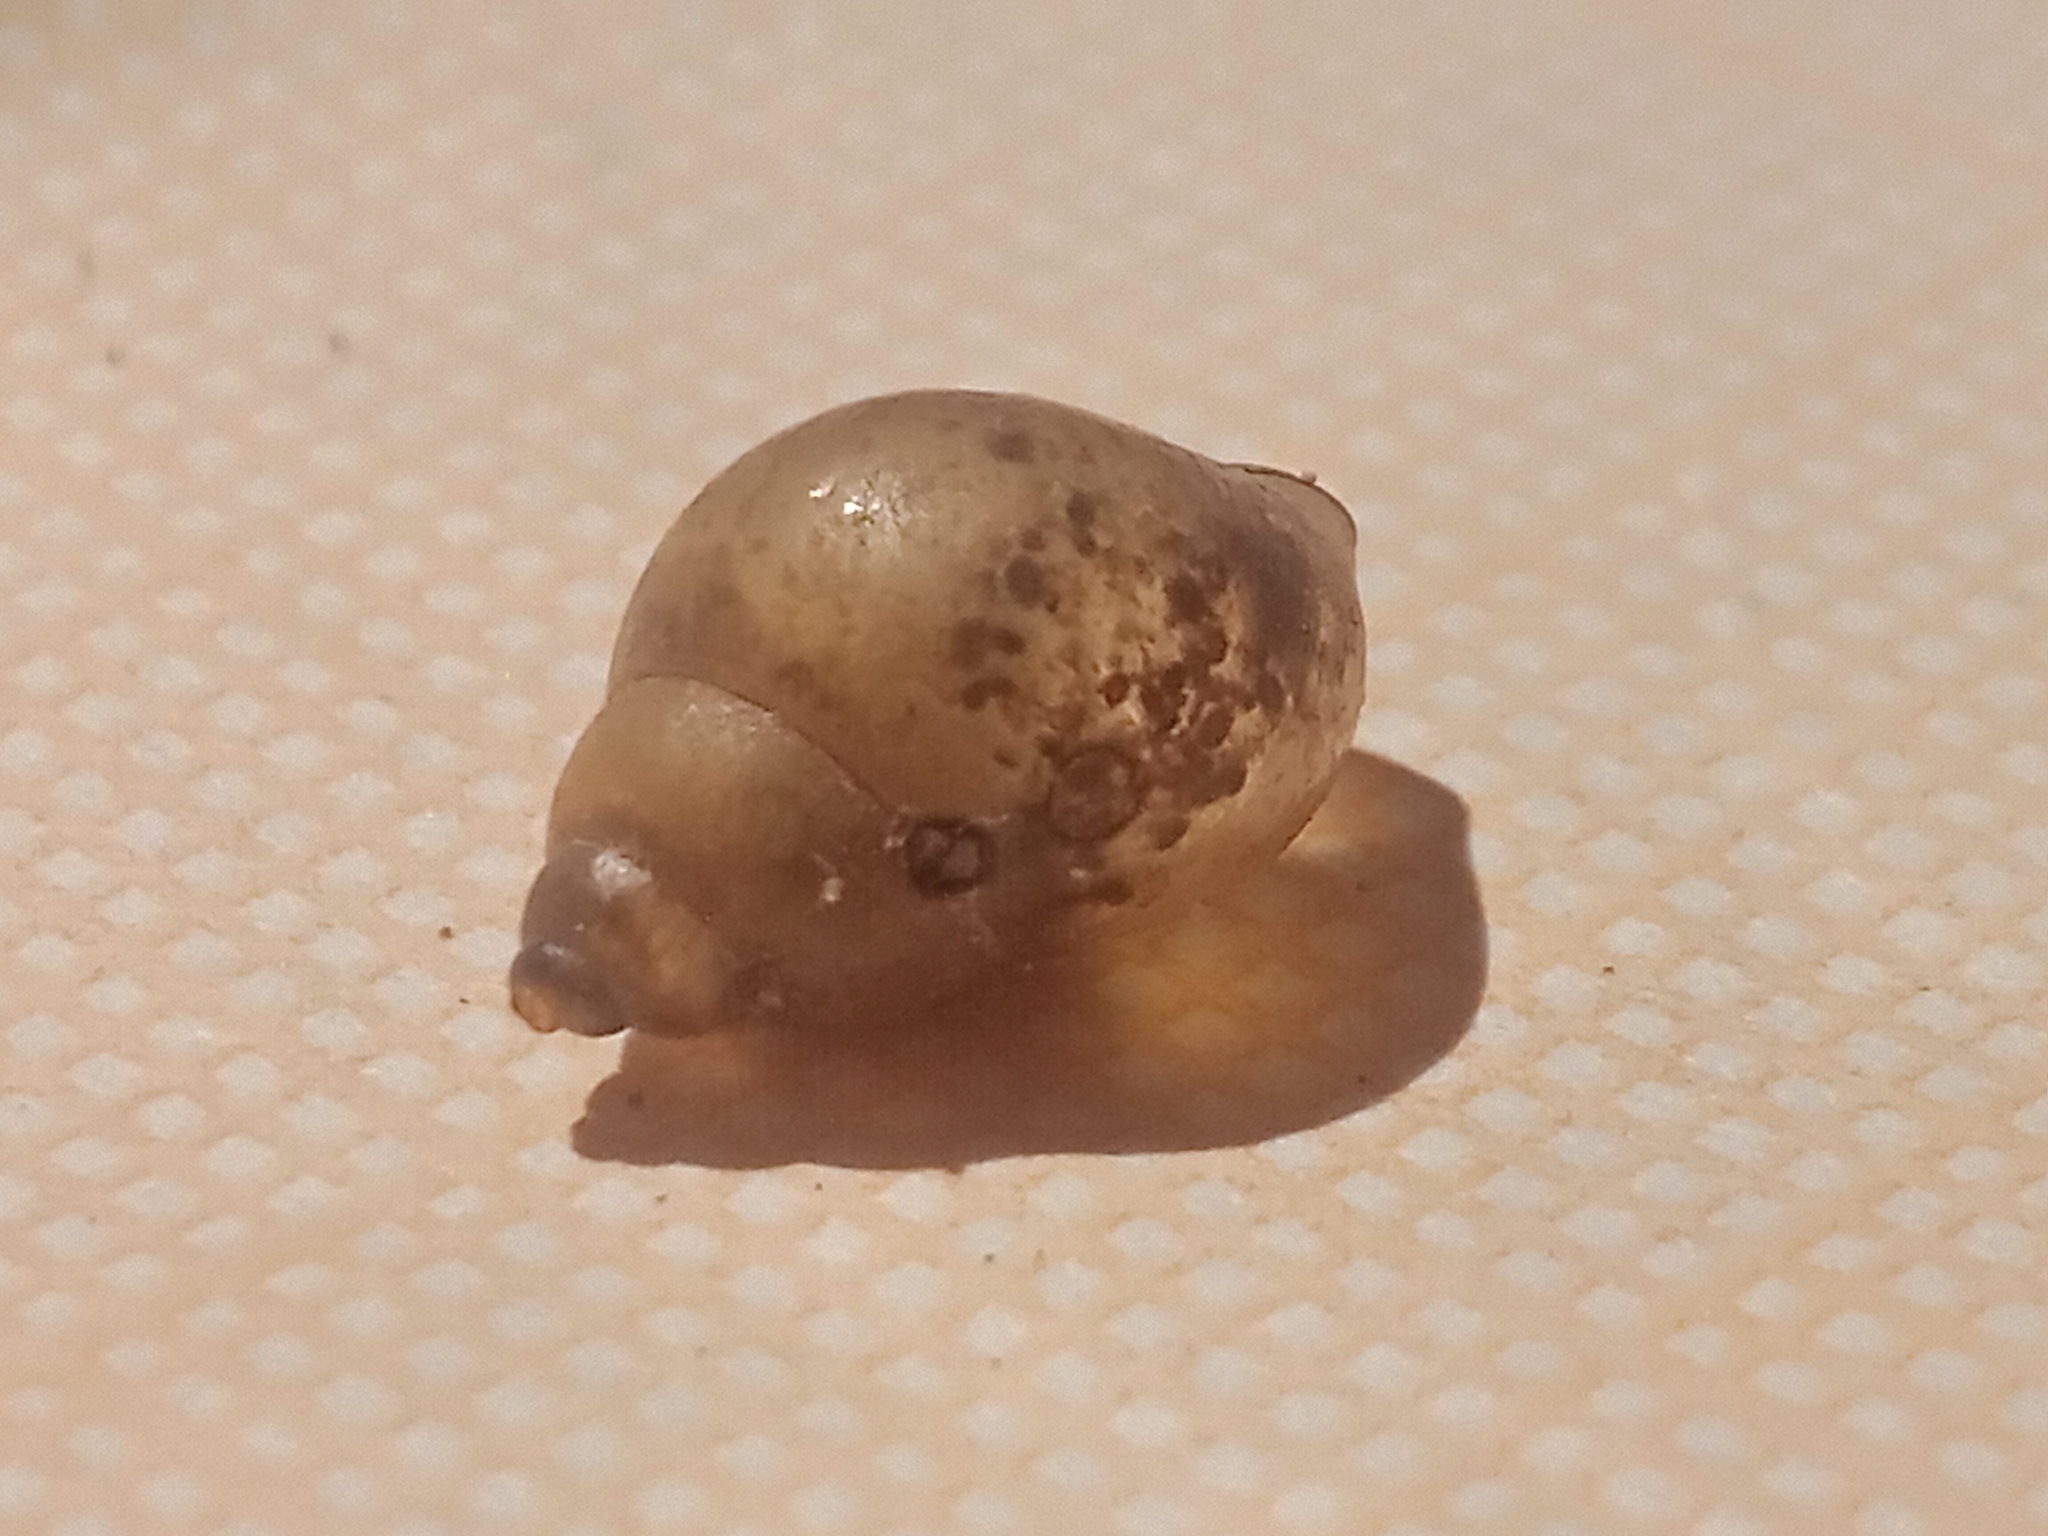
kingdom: Animalia
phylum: Mollusca
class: Gastropoda
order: Littorinimorpha
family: Bithyniidae
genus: Bithynia
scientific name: Bithynia tentaculata
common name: Common bithynia
